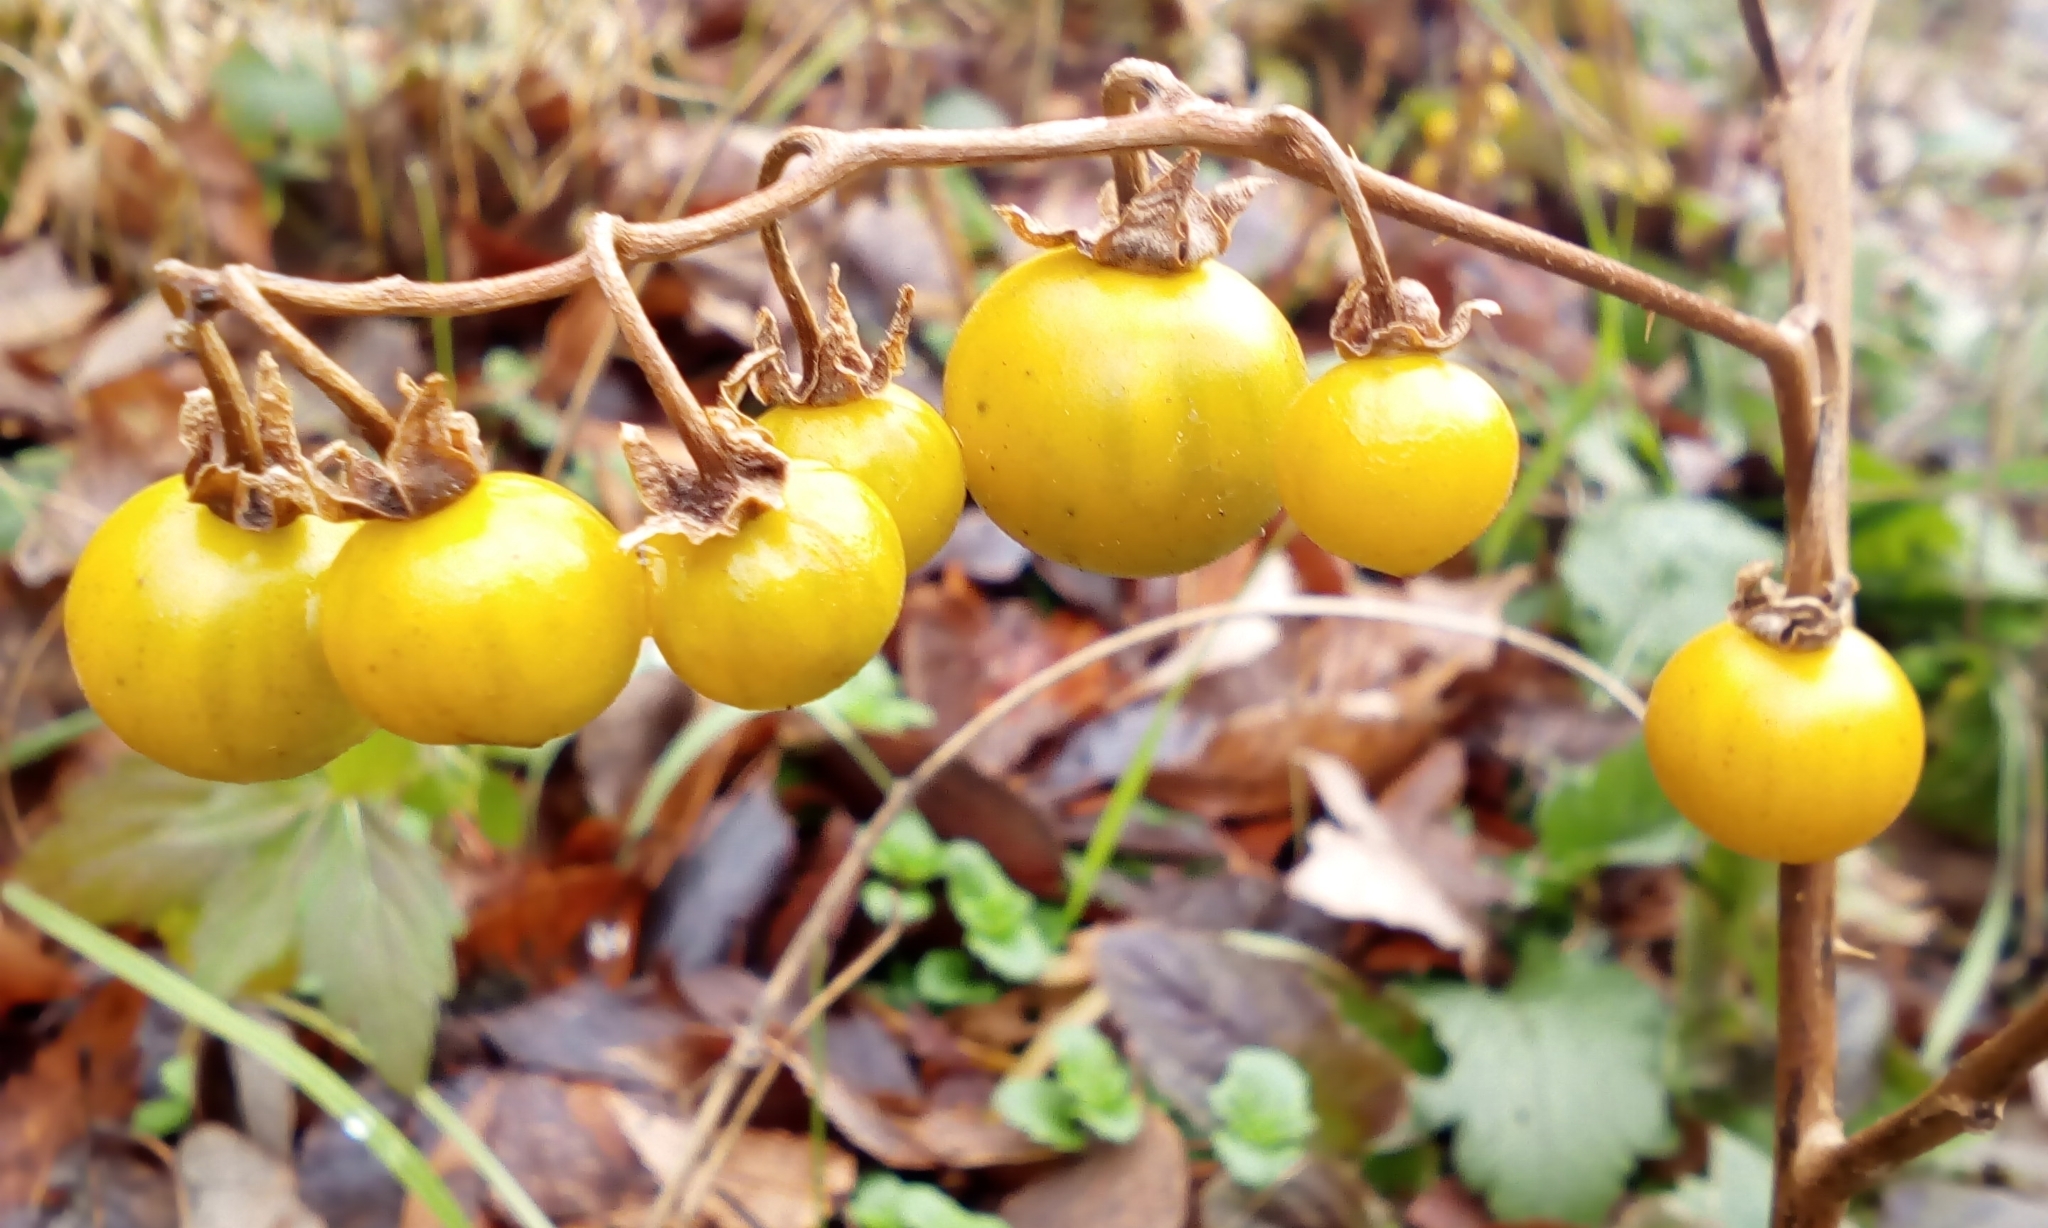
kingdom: Plantae
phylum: Tracheophyta
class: Magnoliopsida
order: Solanales
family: Solanaceae
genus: Solanum
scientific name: Solanum carolinense
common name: Horse-nettle
